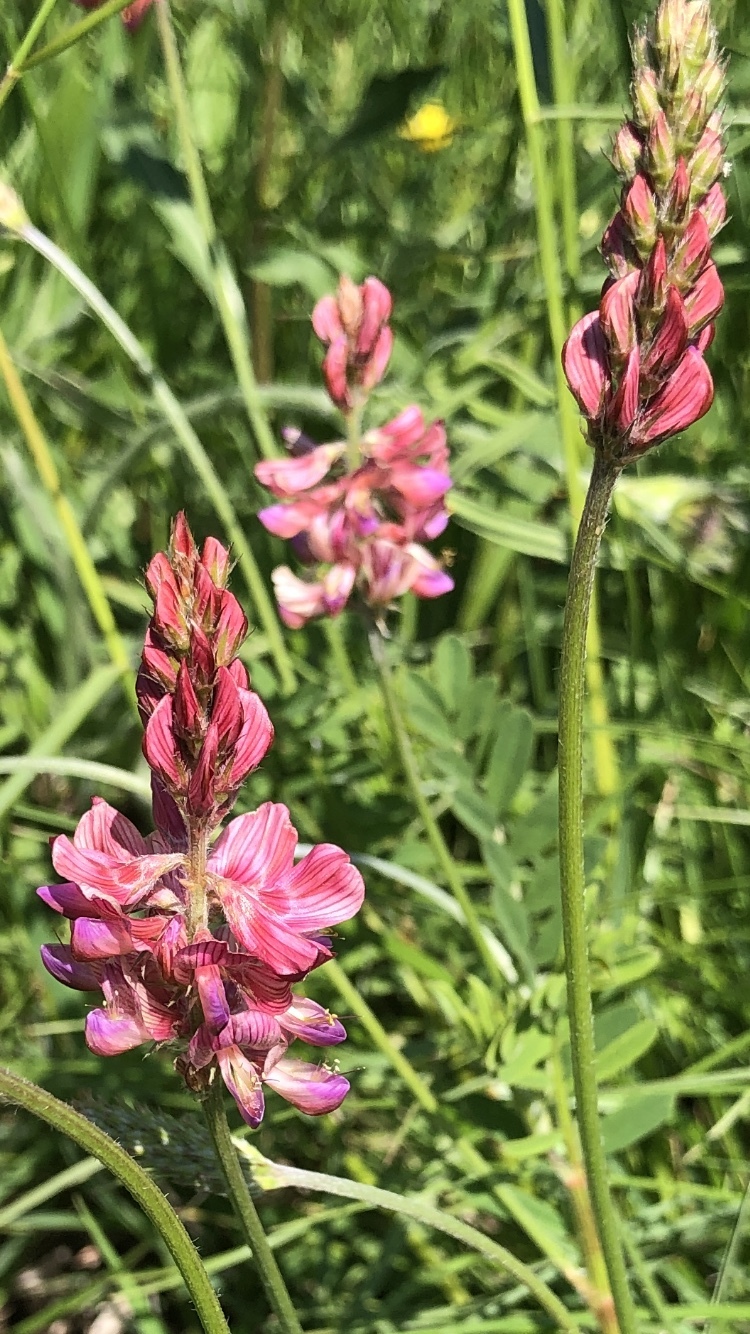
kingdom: Plantae
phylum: Tracheophyta
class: Magnoliopsida
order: Fabales
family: Fabaceae
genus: Onobrychis
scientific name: Onobrychis viciifolia
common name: Sainfoin
